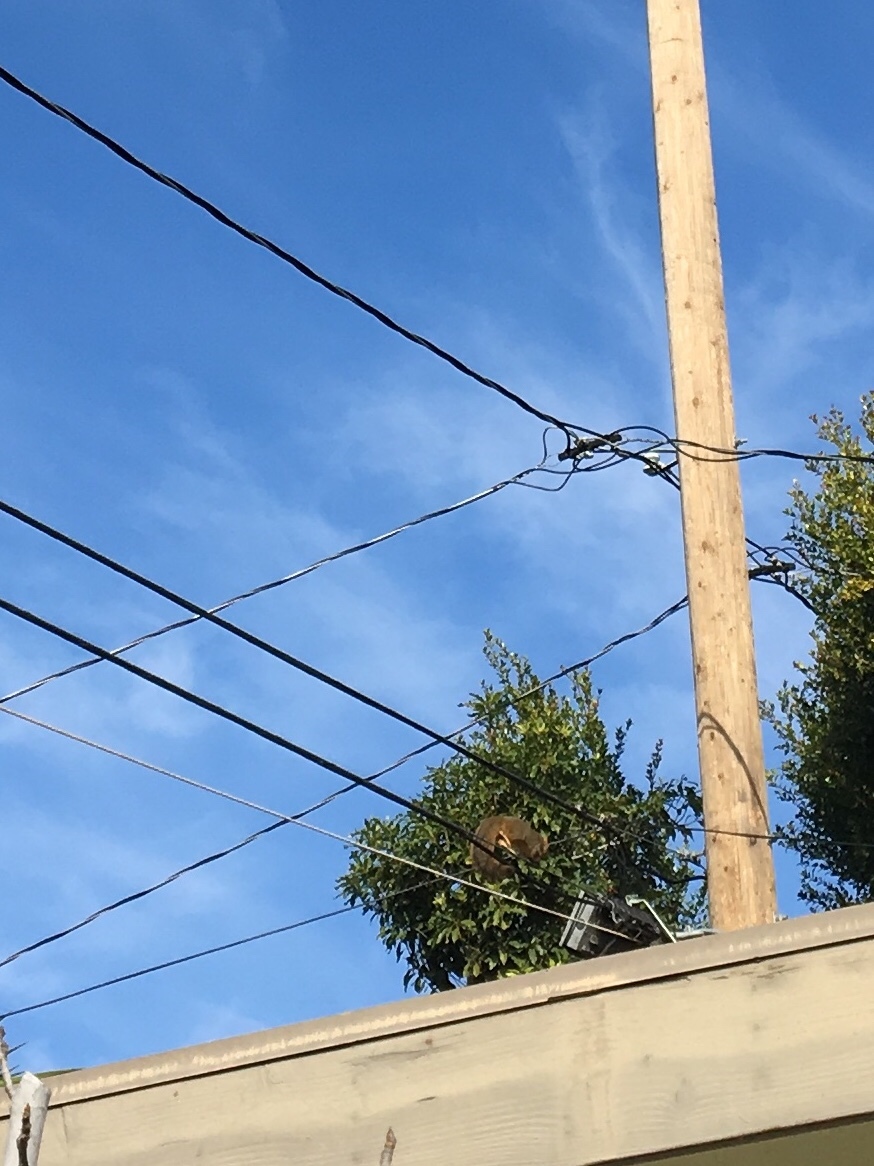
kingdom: Animalia
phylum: Chordata
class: Mammalia
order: Rodentia
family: Sciuridae
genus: Sciurus
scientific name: Sciurus niger
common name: Fox squirrel
